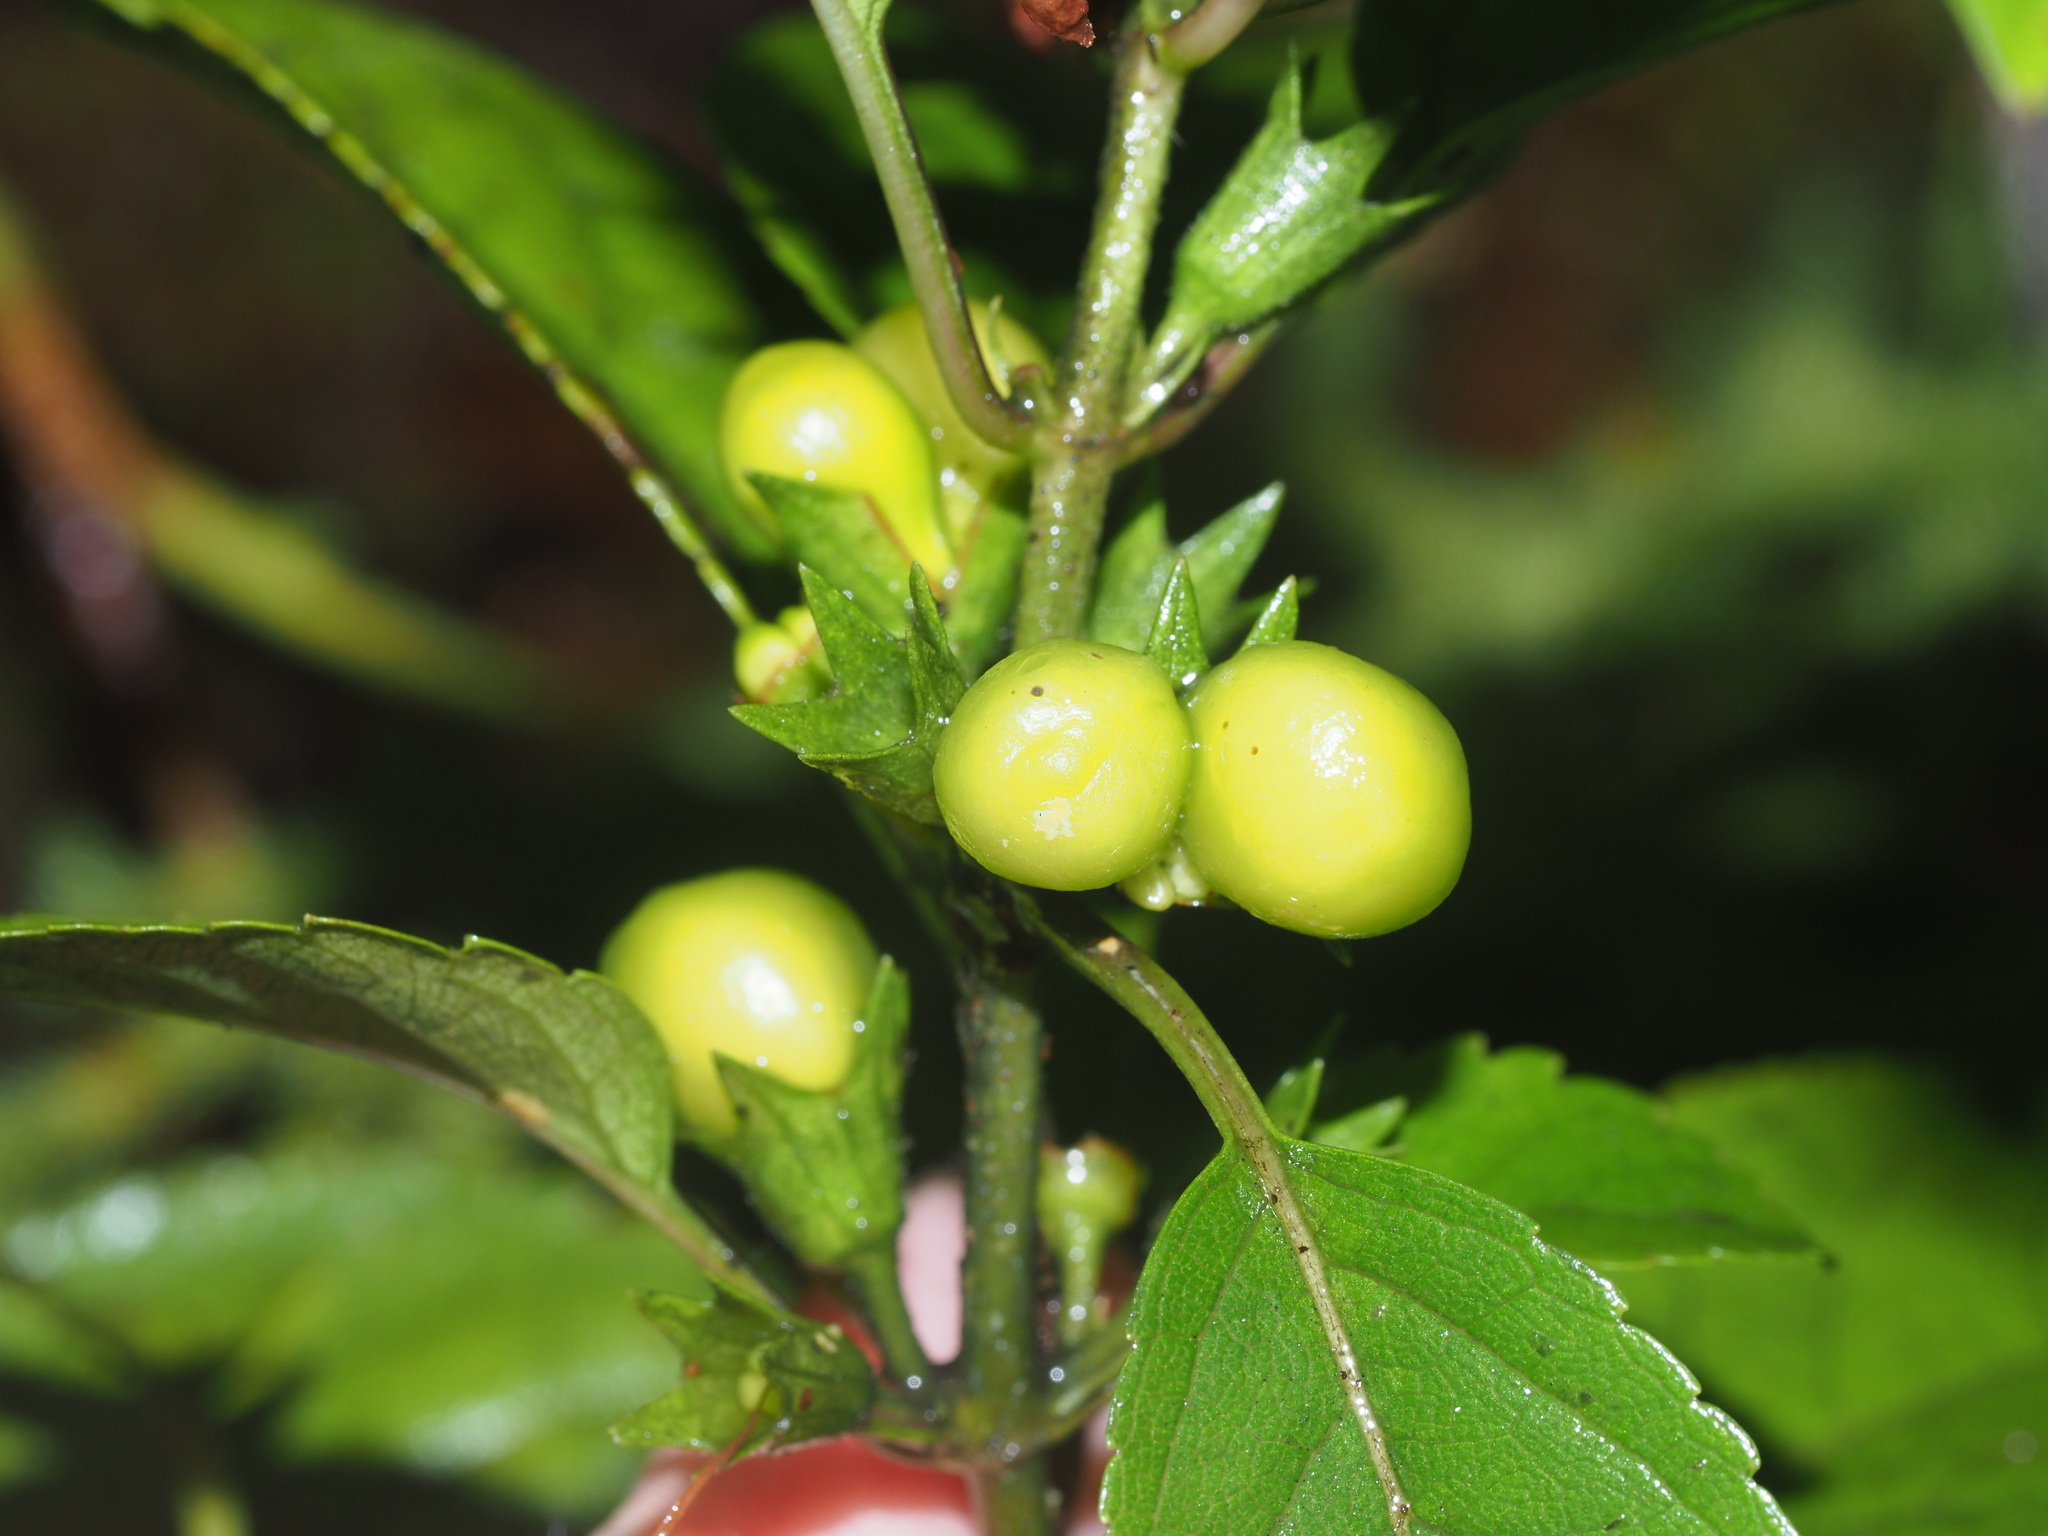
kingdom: Plantae
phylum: Tracheophyta
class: Magnoliopsida
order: Lamiales
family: Lamiaceae
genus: Stenogyne
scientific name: Stenogyne purpurea
